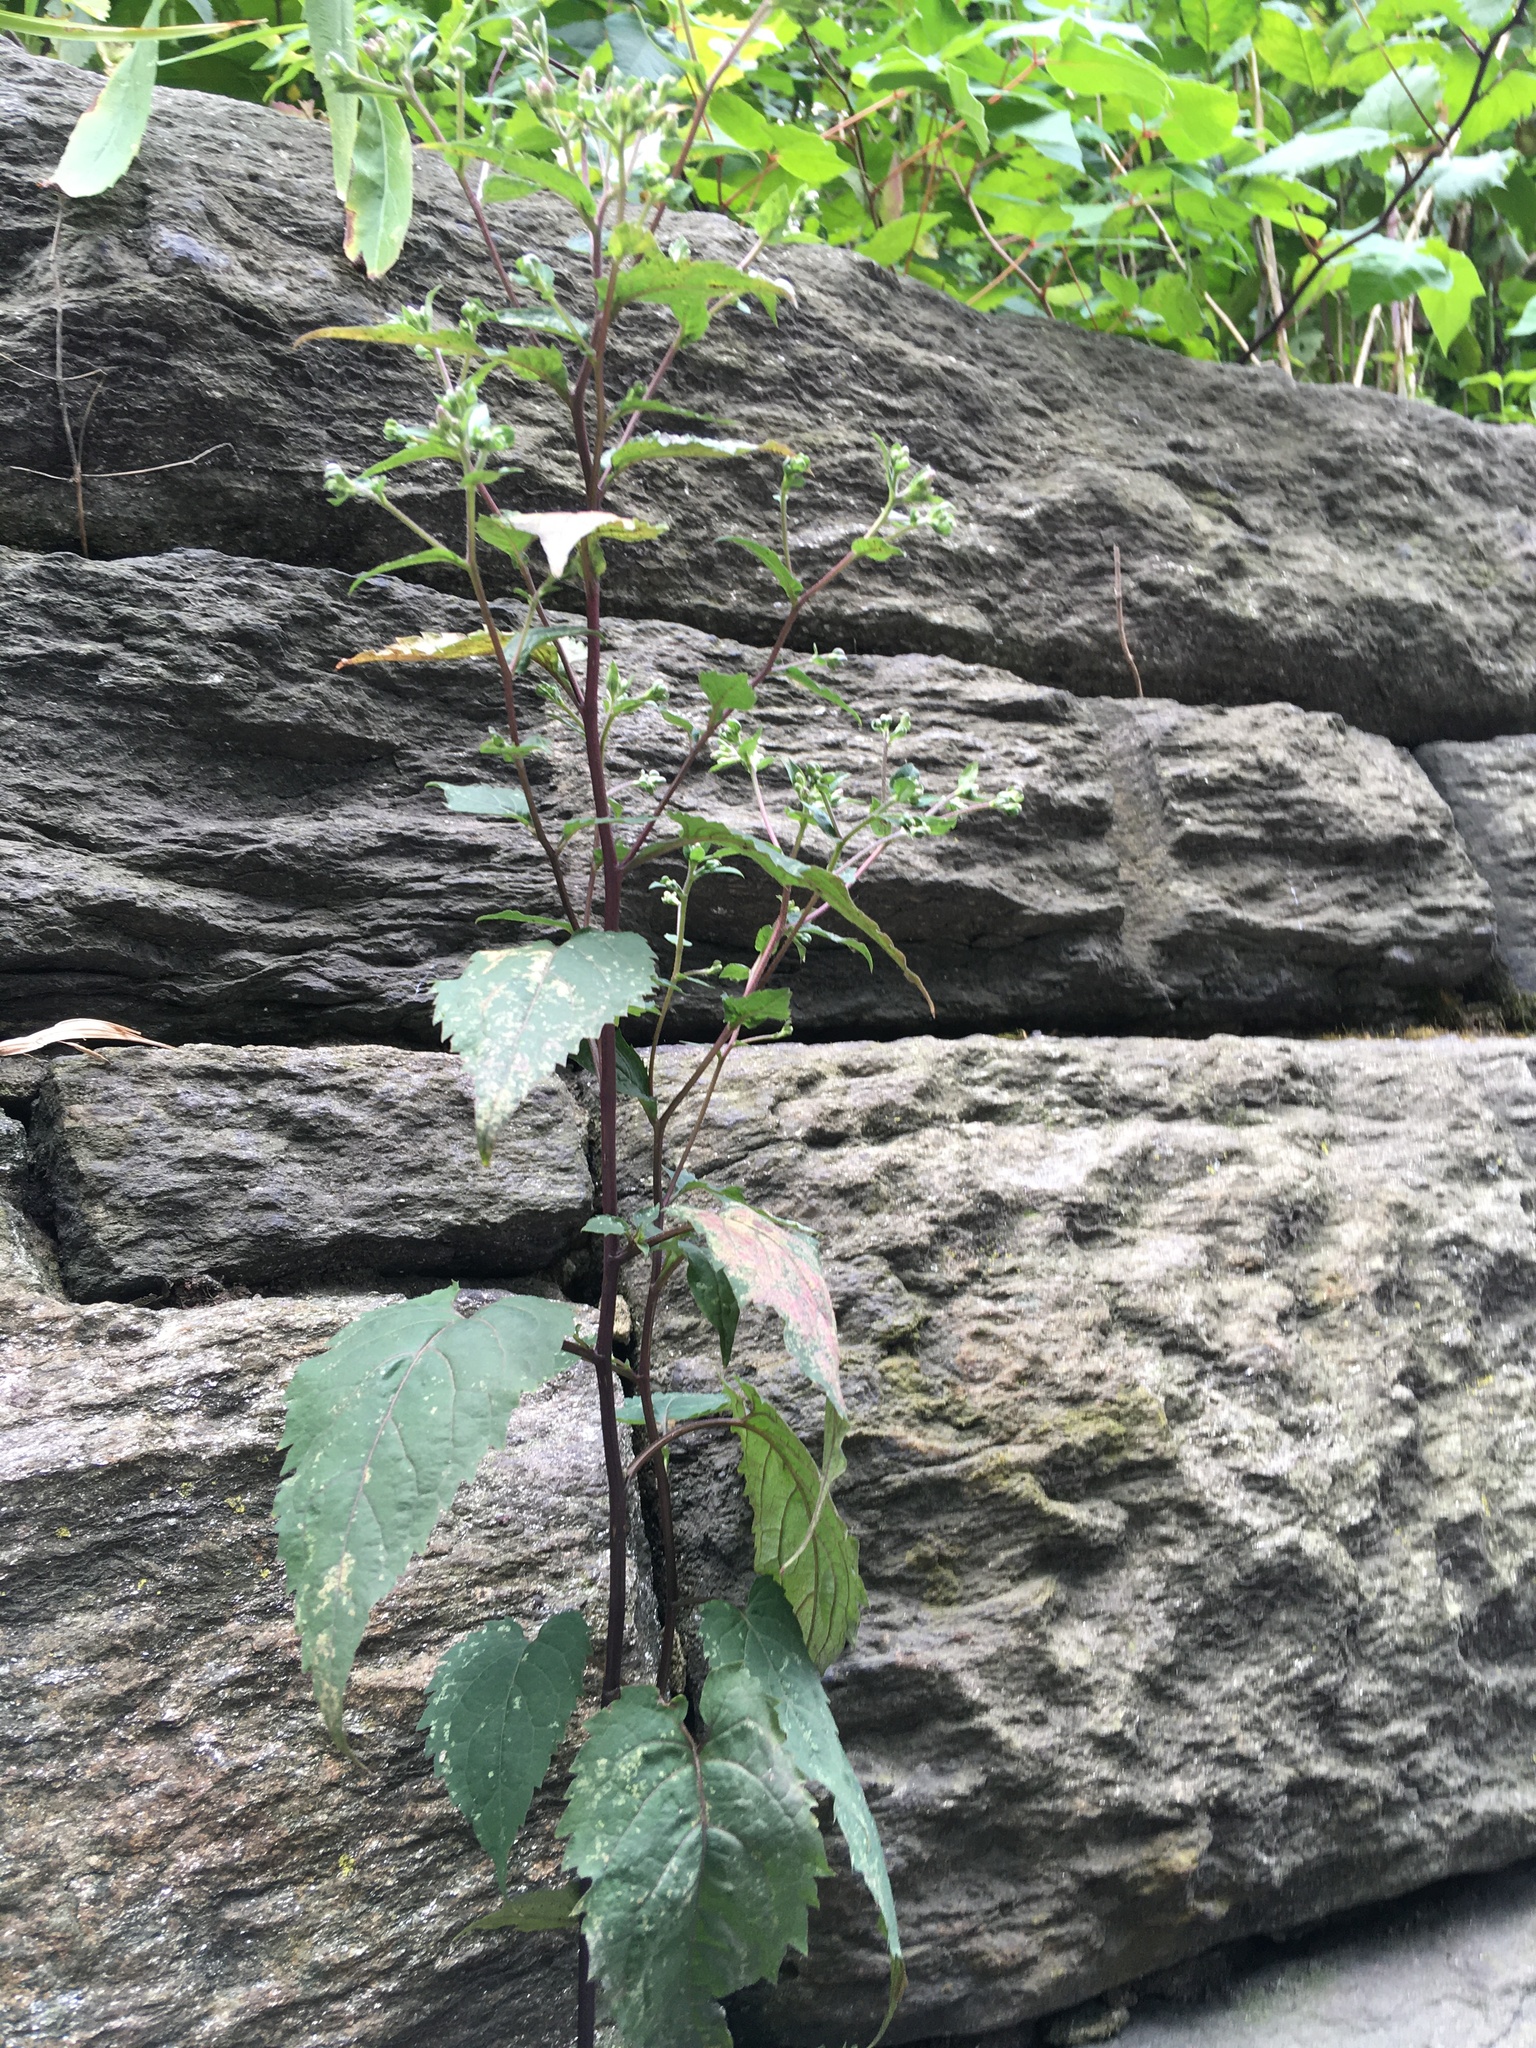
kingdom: Plantae
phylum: Tracheophyta
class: Magnoliopsida
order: Asterales
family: Asteraceae
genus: Eurybia
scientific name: Eurybia divaricata
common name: White wood aster
